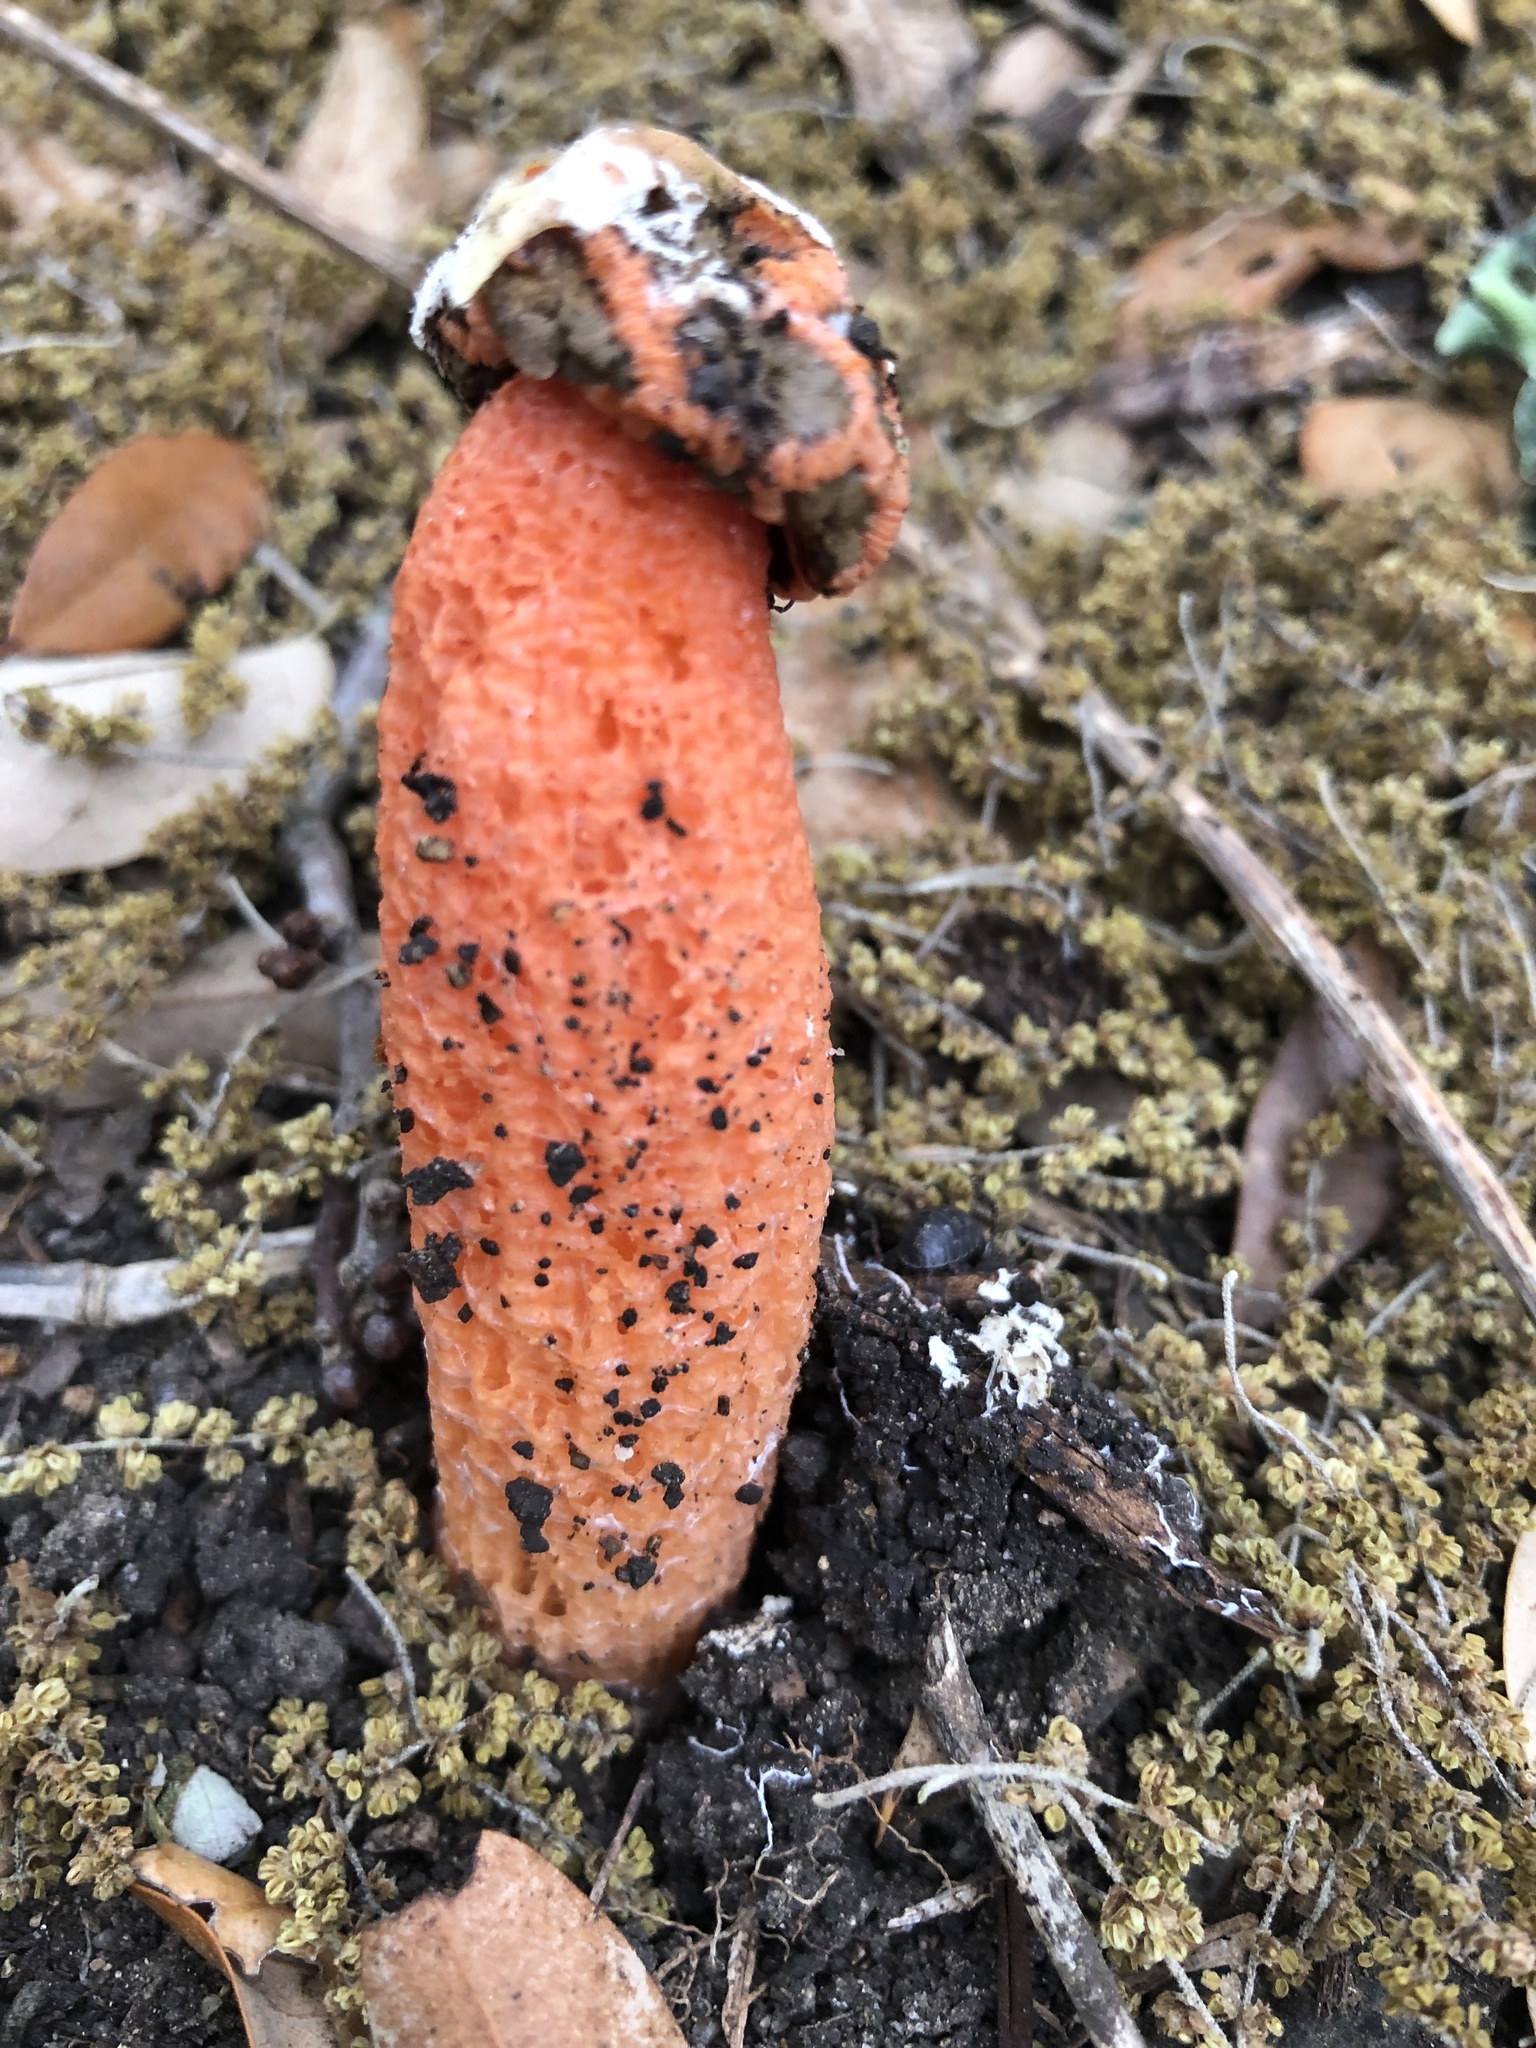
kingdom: Fungi
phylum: Basidiomycota
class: Agaricomycetes
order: Phallales
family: Phallaceae
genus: Lysurus
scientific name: Lysurus periphragmoides
